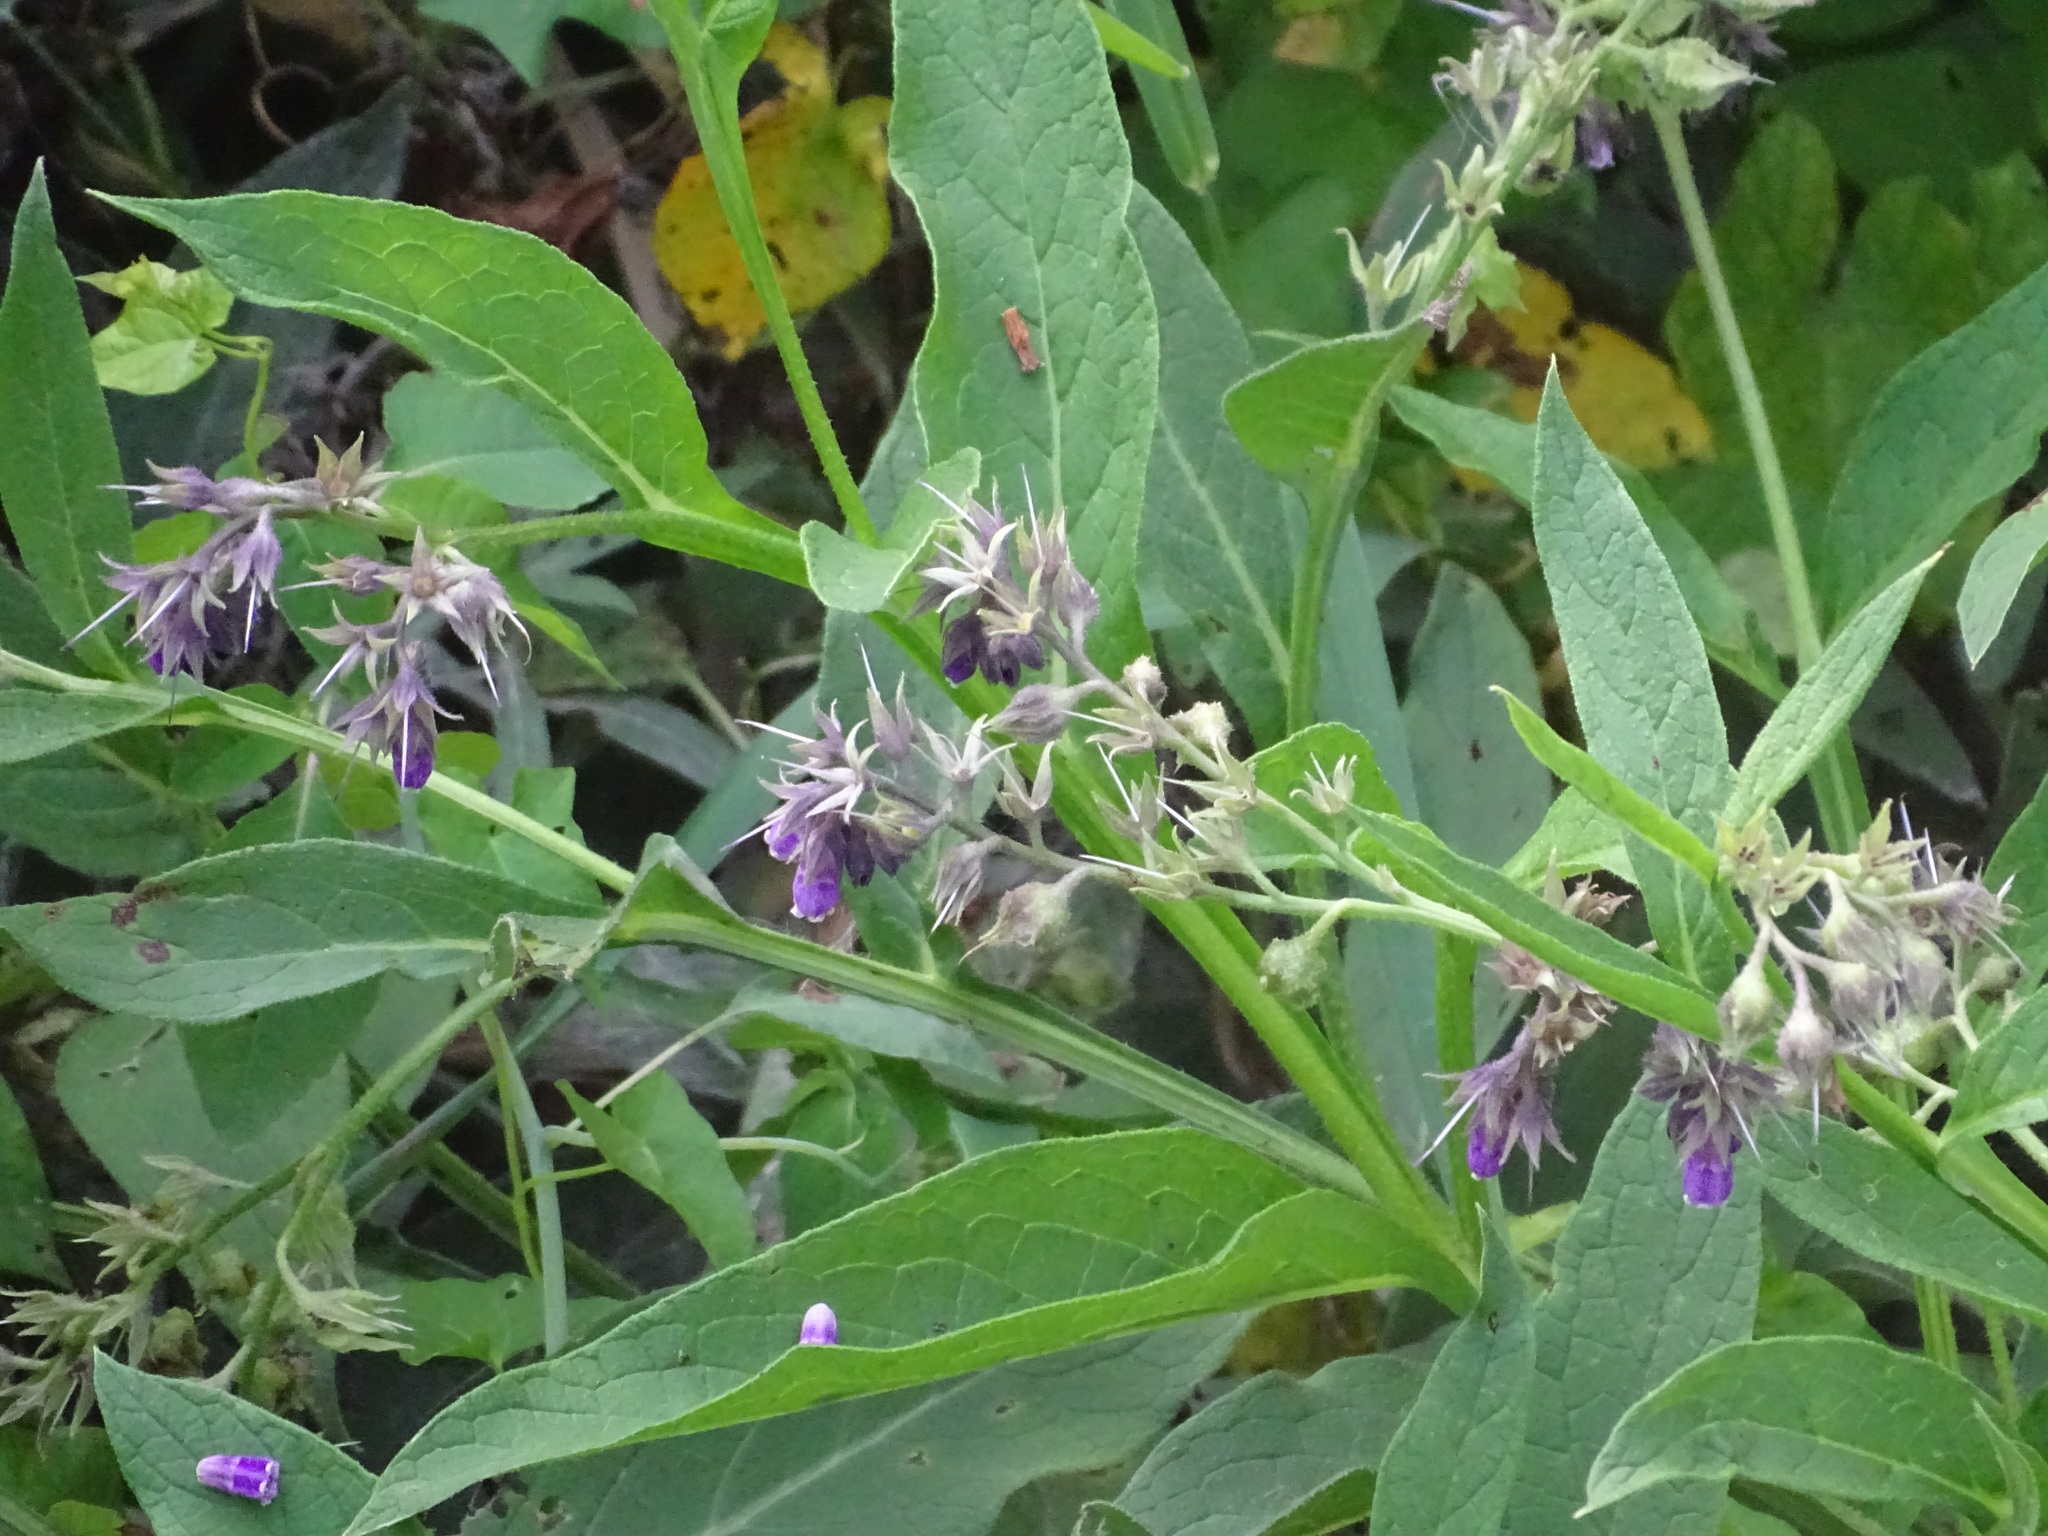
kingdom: Plantae
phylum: Tracheophyta
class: Magnoliopsida
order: Boraginales
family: Boraginaceae
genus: Symphytum
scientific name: Symphytum officinale
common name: Common comfrey
